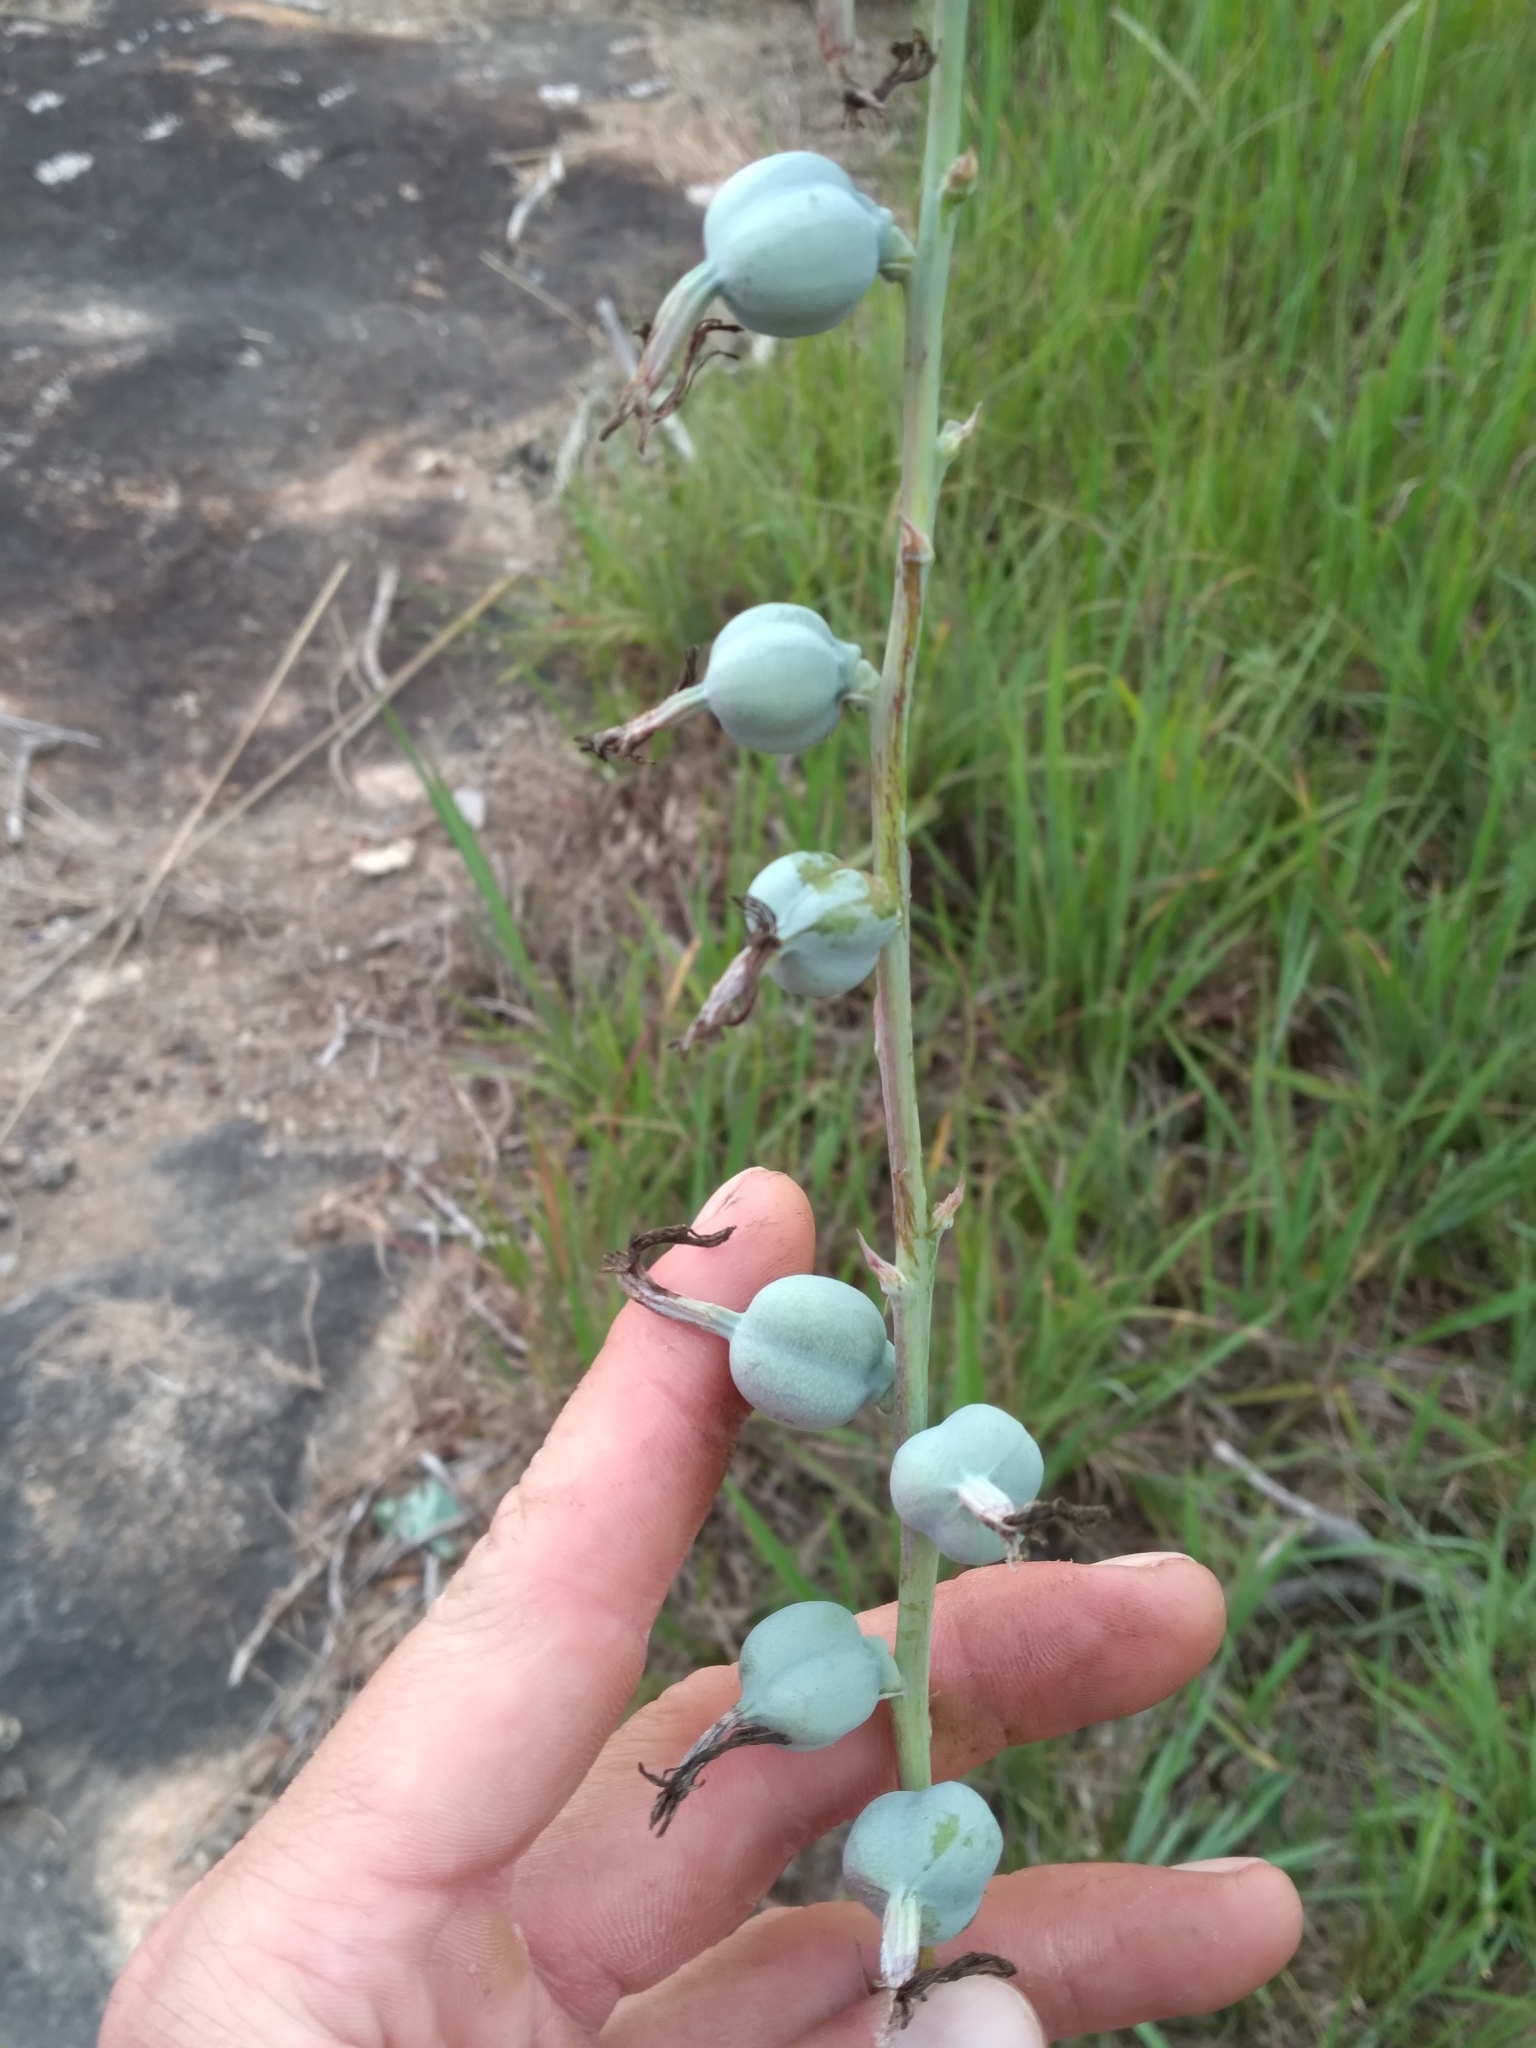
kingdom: Plantae
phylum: Tracheophyta
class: Liliopsida
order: Asparagales
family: Asparagaceae
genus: Agave
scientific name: Agave virginica
